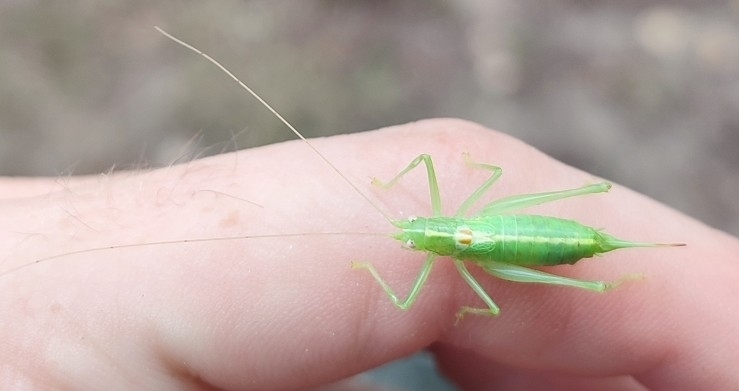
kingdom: Animalia
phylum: Arthropoda
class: Insecta
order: Orthoptera
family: Tettigoniidae
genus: Meconema
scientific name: Meconema meridionale
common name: Southern oak bush-cricket
